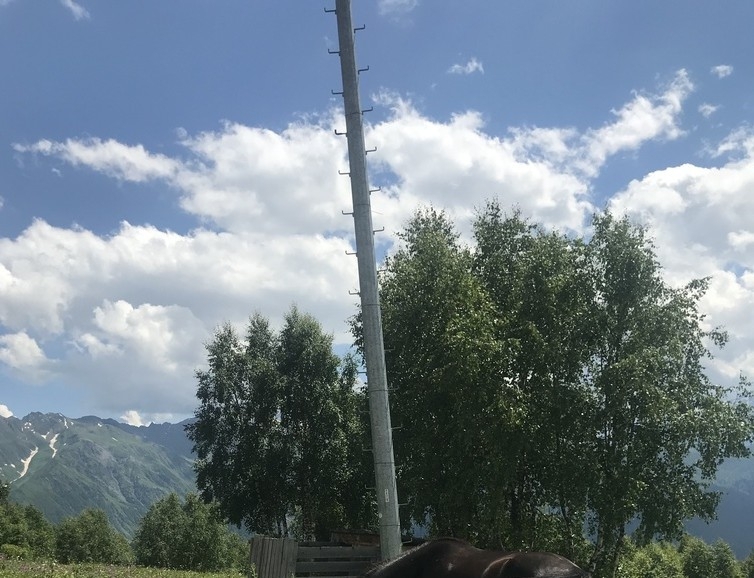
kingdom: Plantae
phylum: Tracheophyta
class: Magnoliopsida
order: Fagales
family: Betulaceae
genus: Betula
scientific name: Betula
